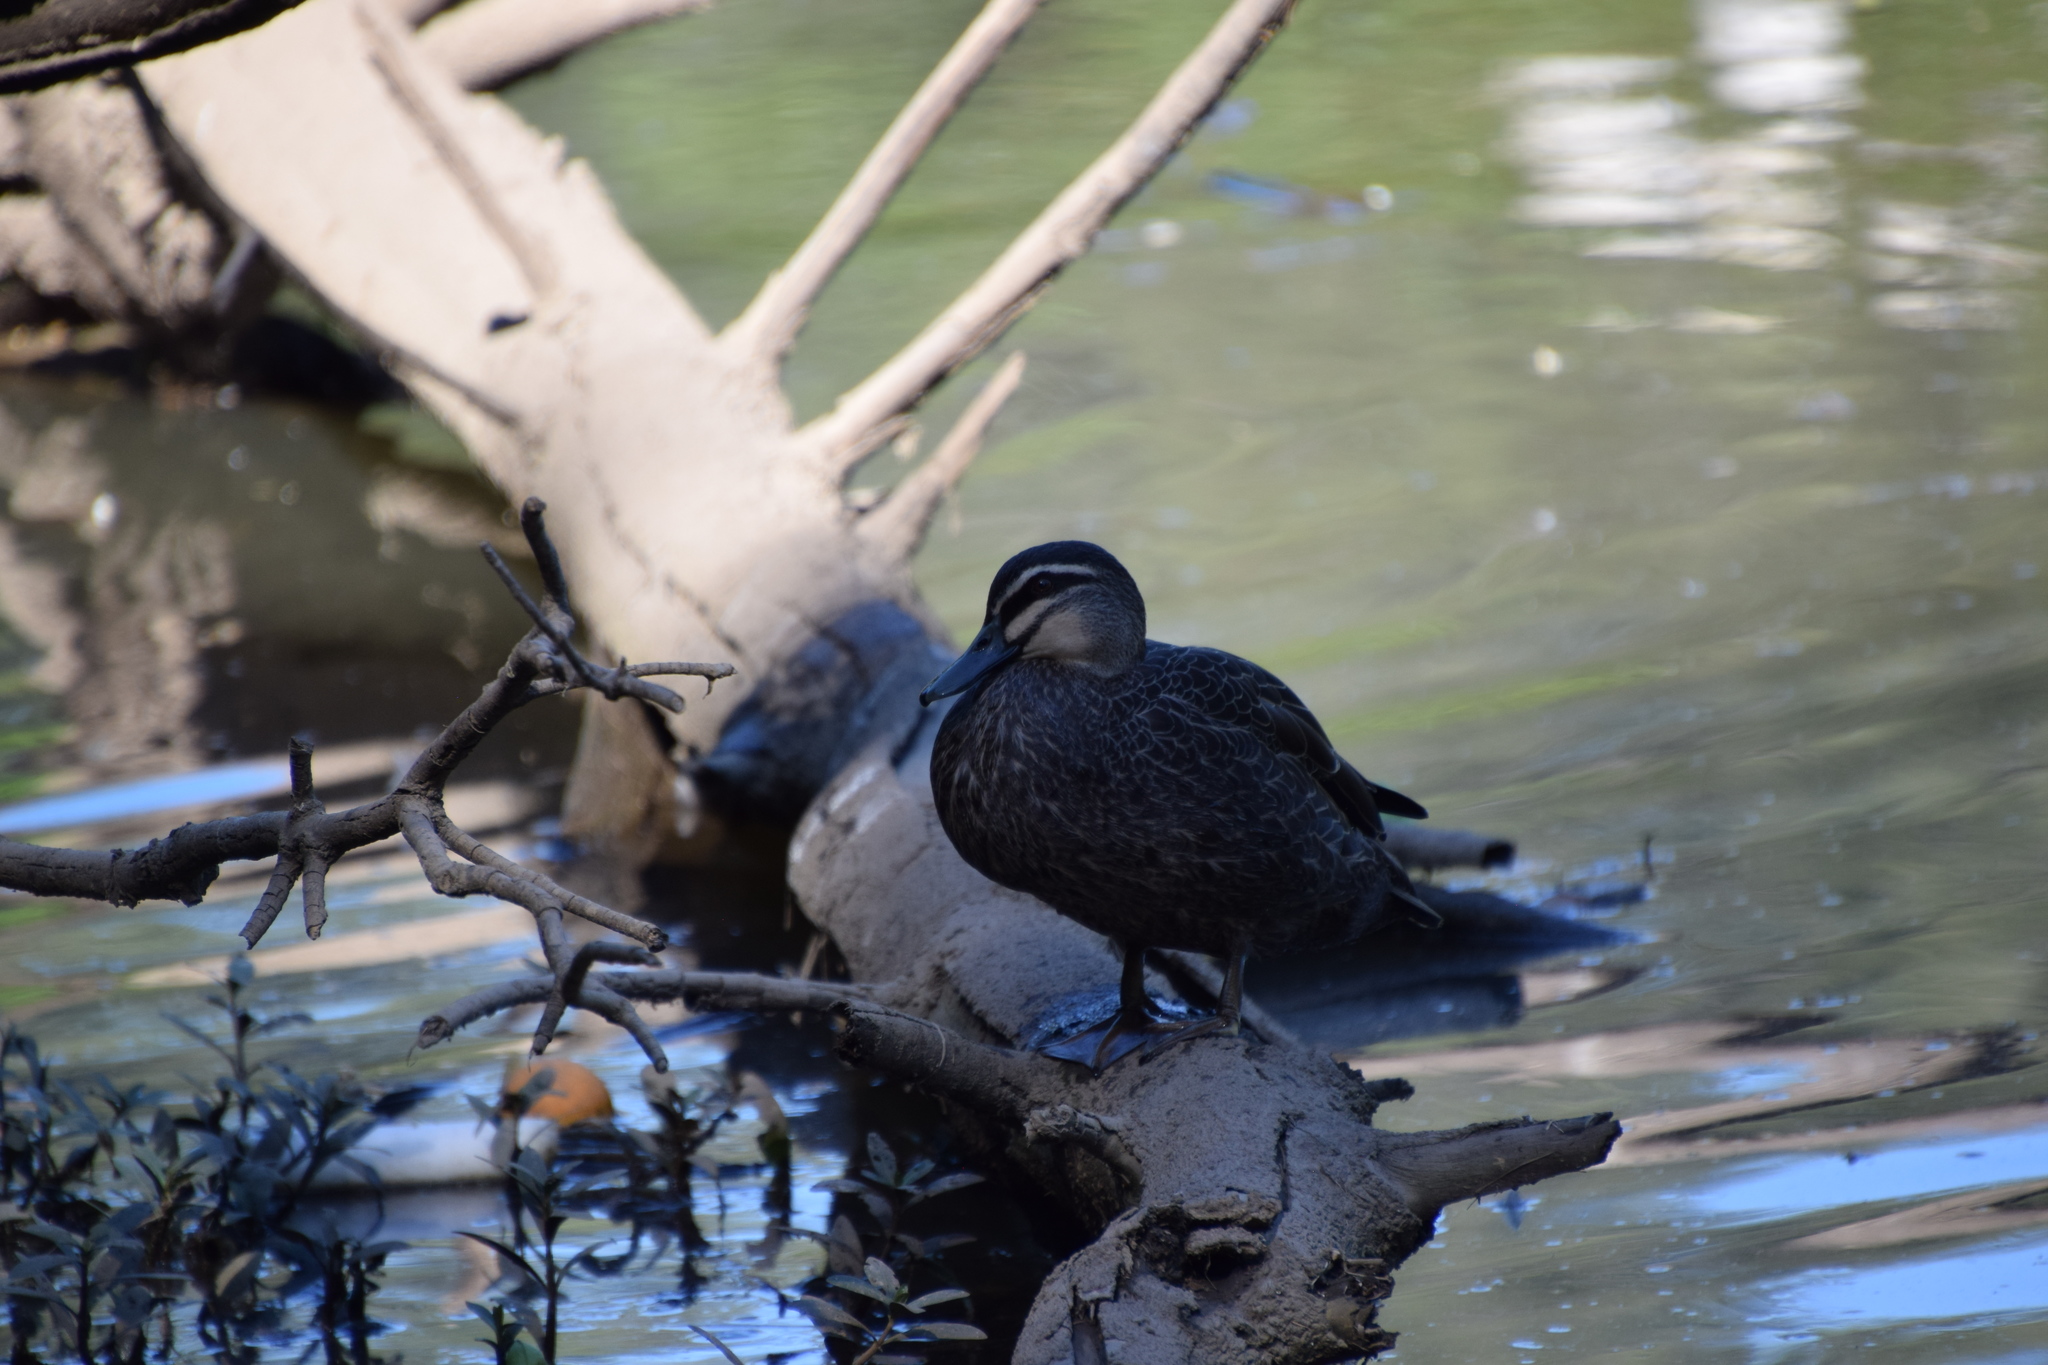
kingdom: Animalia
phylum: Chordata
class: Aves
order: Anseriformes
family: Anatidae
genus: Anas
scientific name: Anas superciliosa
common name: Pacific black duck
